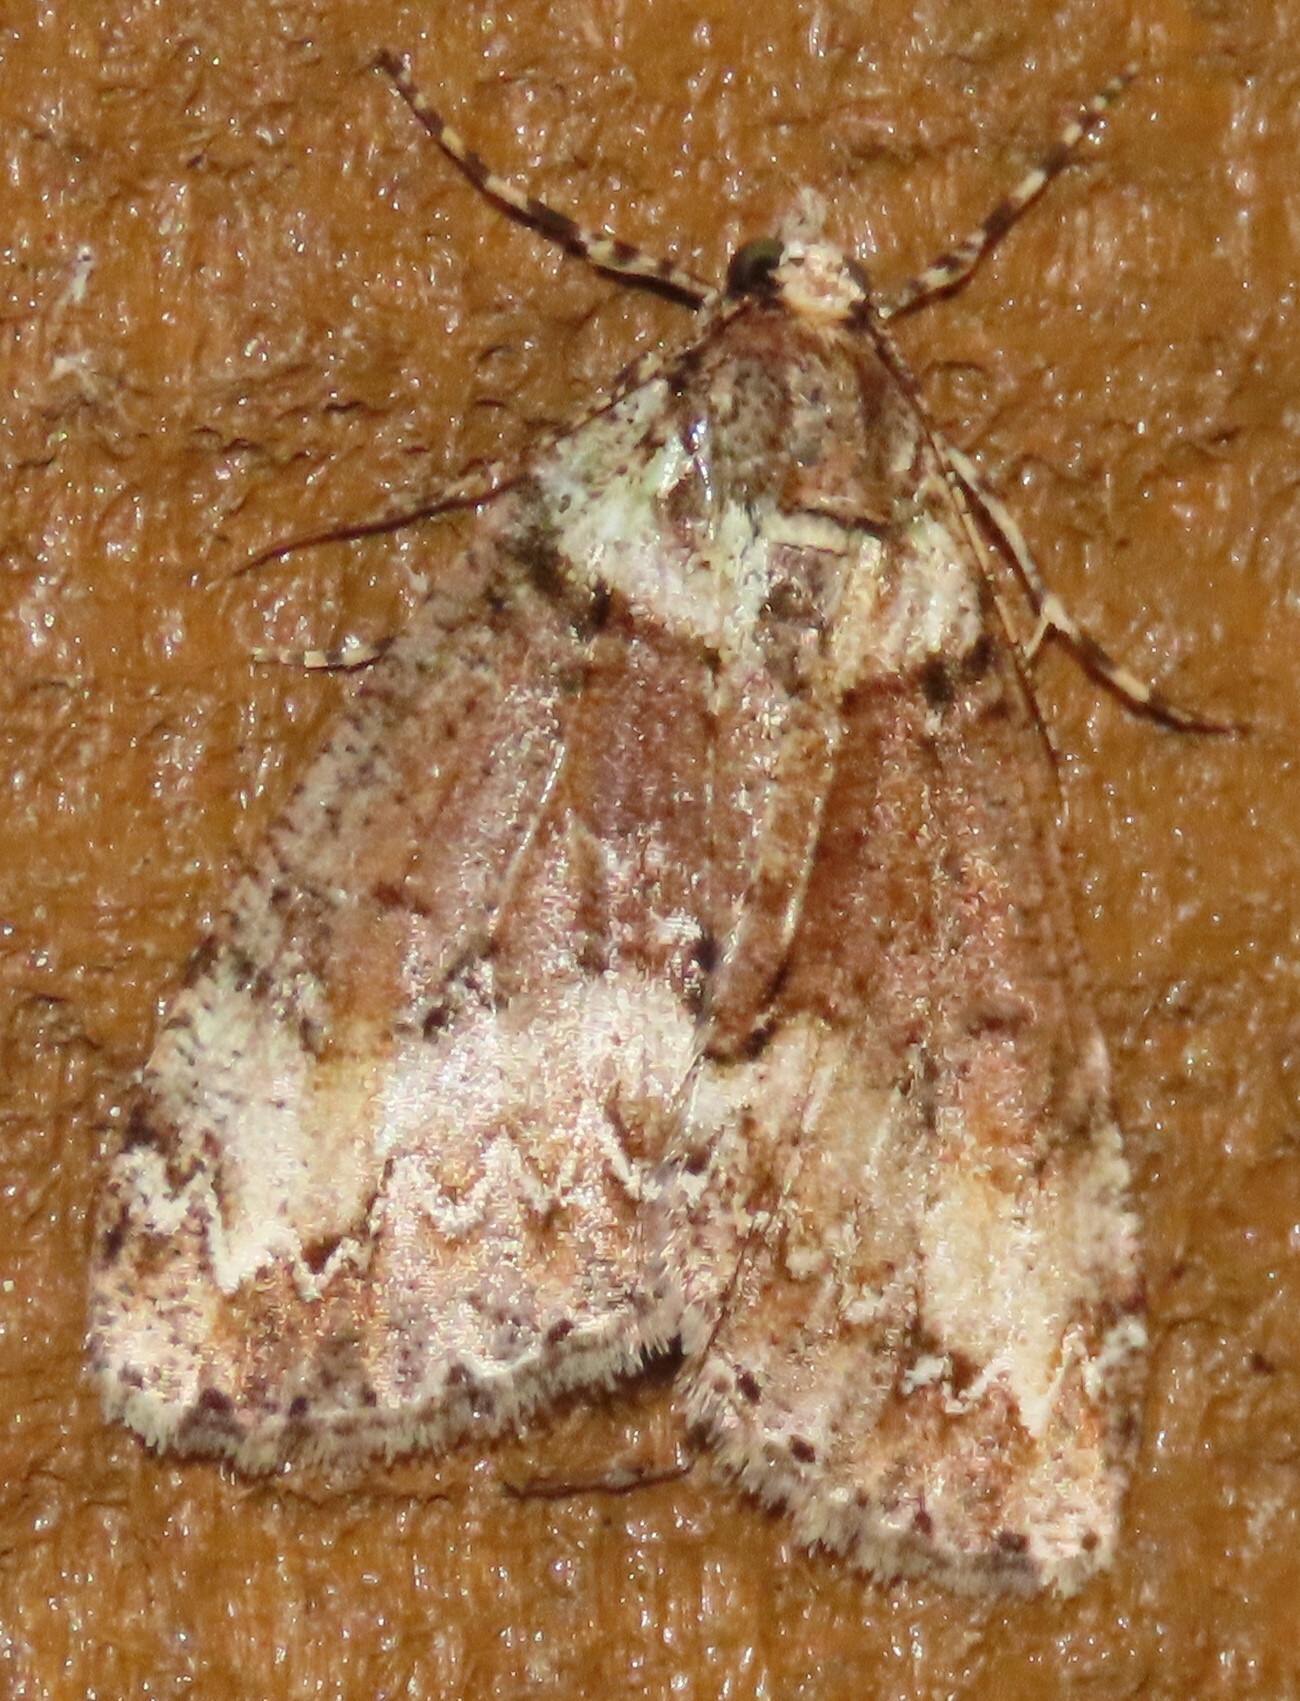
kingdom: Animalia
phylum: Arthropoda
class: Insecta
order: Lepidoptera
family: Geometridae
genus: Pseudocoremia
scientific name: Pseudocoremia suavis
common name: Common forest looper
